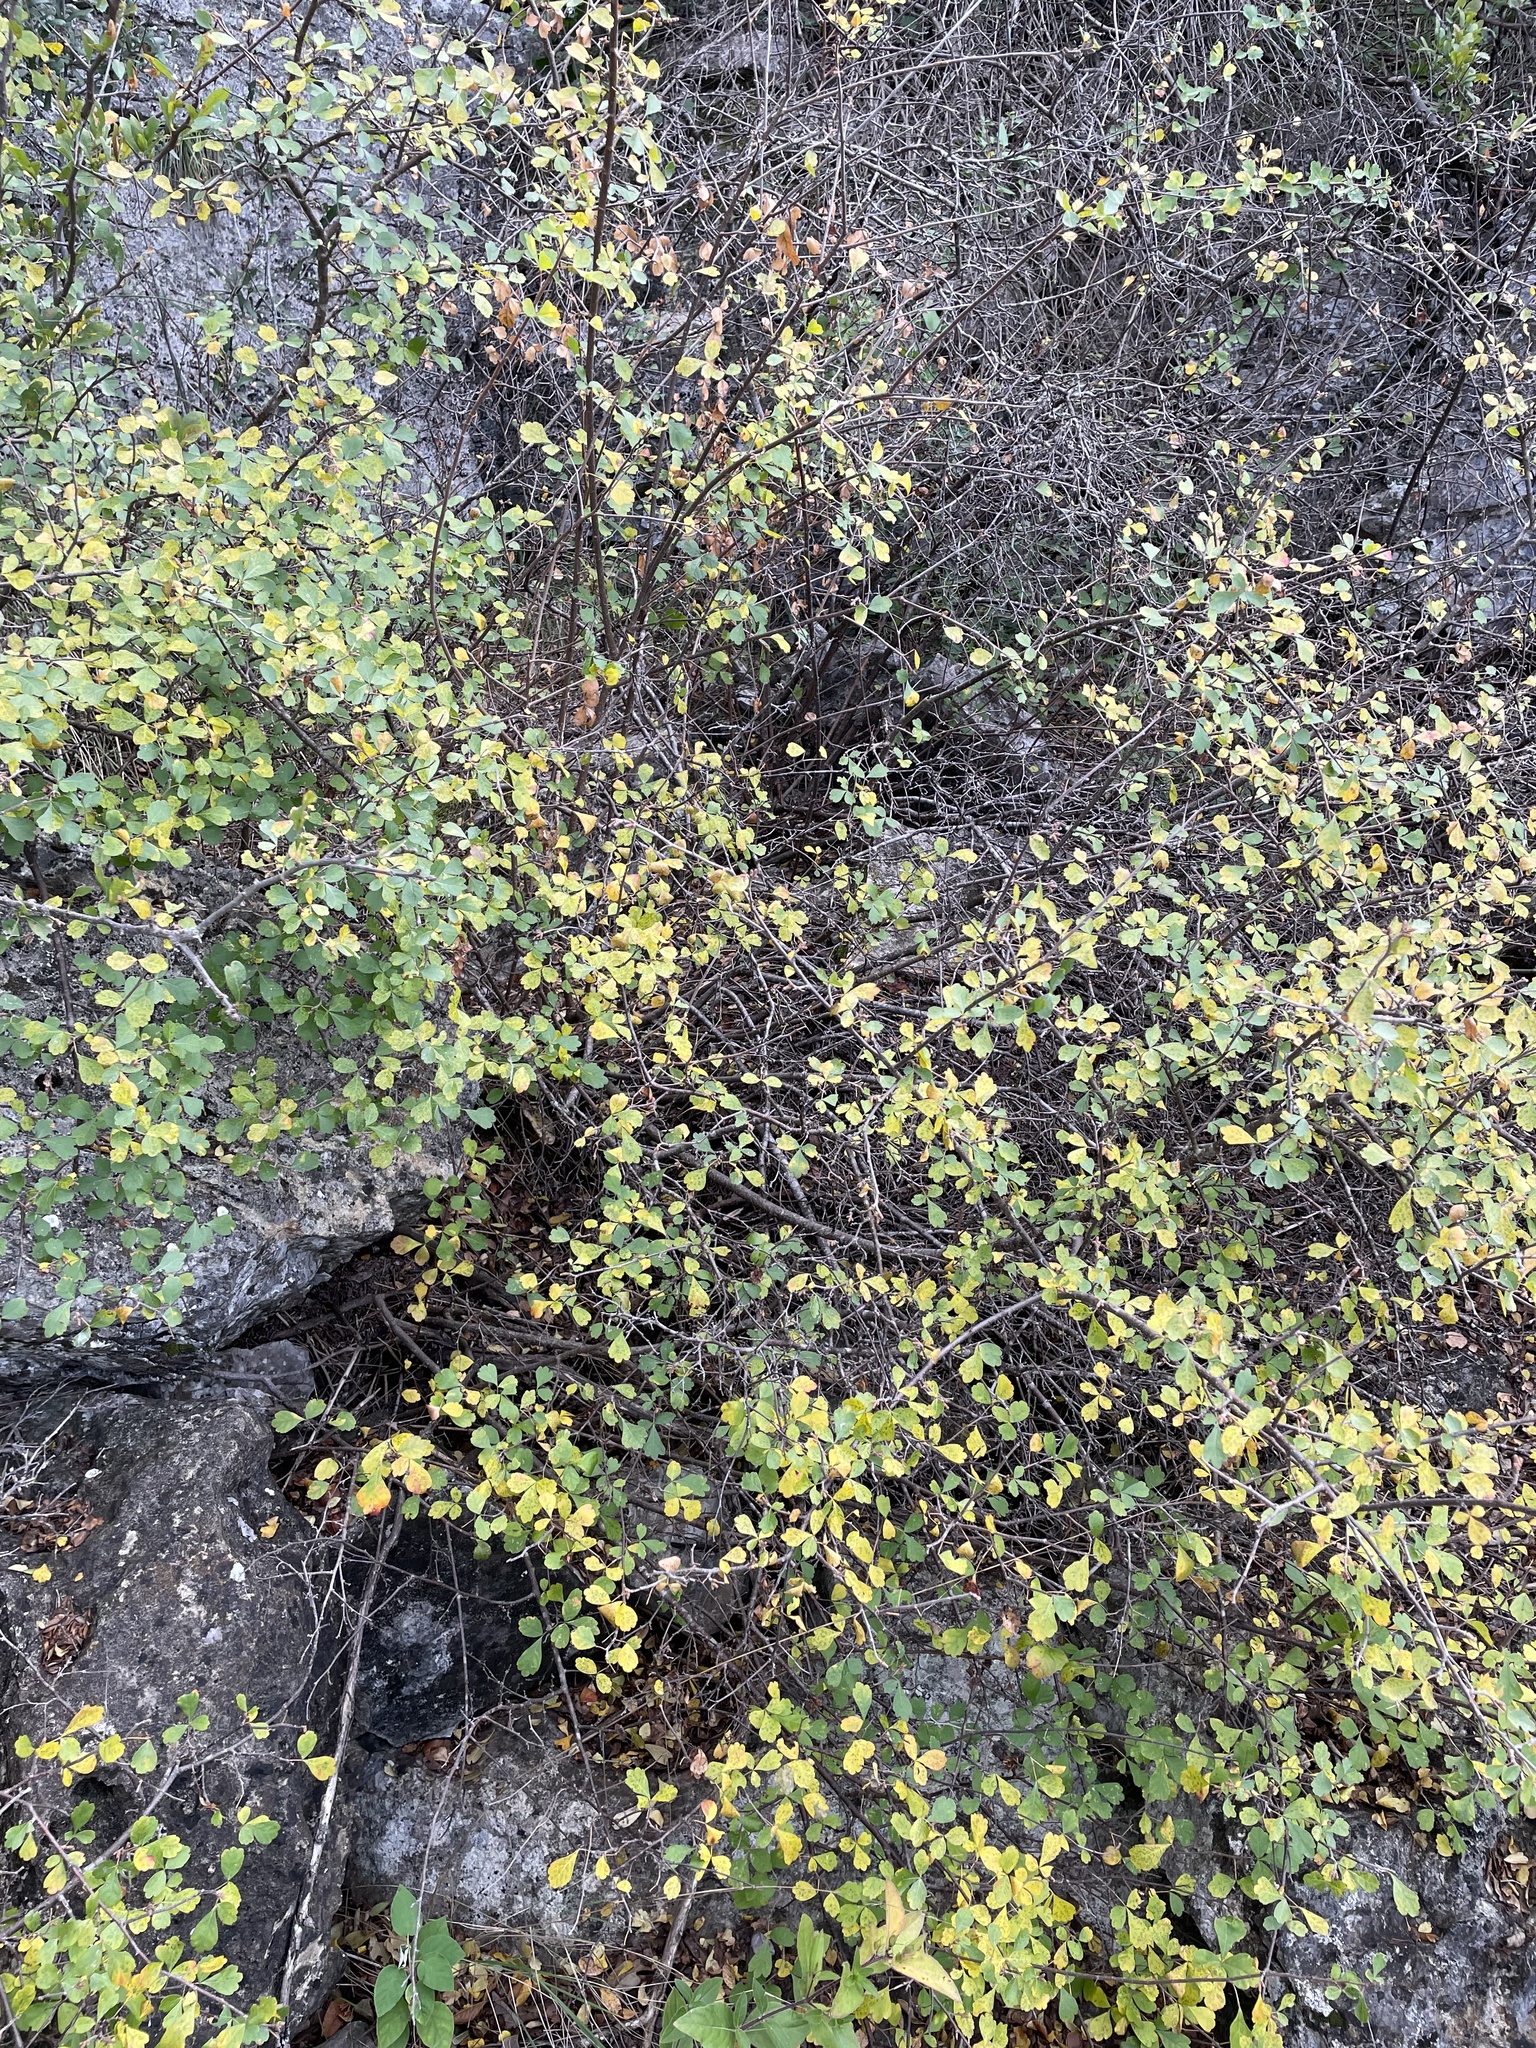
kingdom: Plantae
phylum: Tracheophyta
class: Magnoliopsida
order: Sapindales
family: Anacardiaceae
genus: Rhus
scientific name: Rhus aromatica
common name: Aromatic sumac
